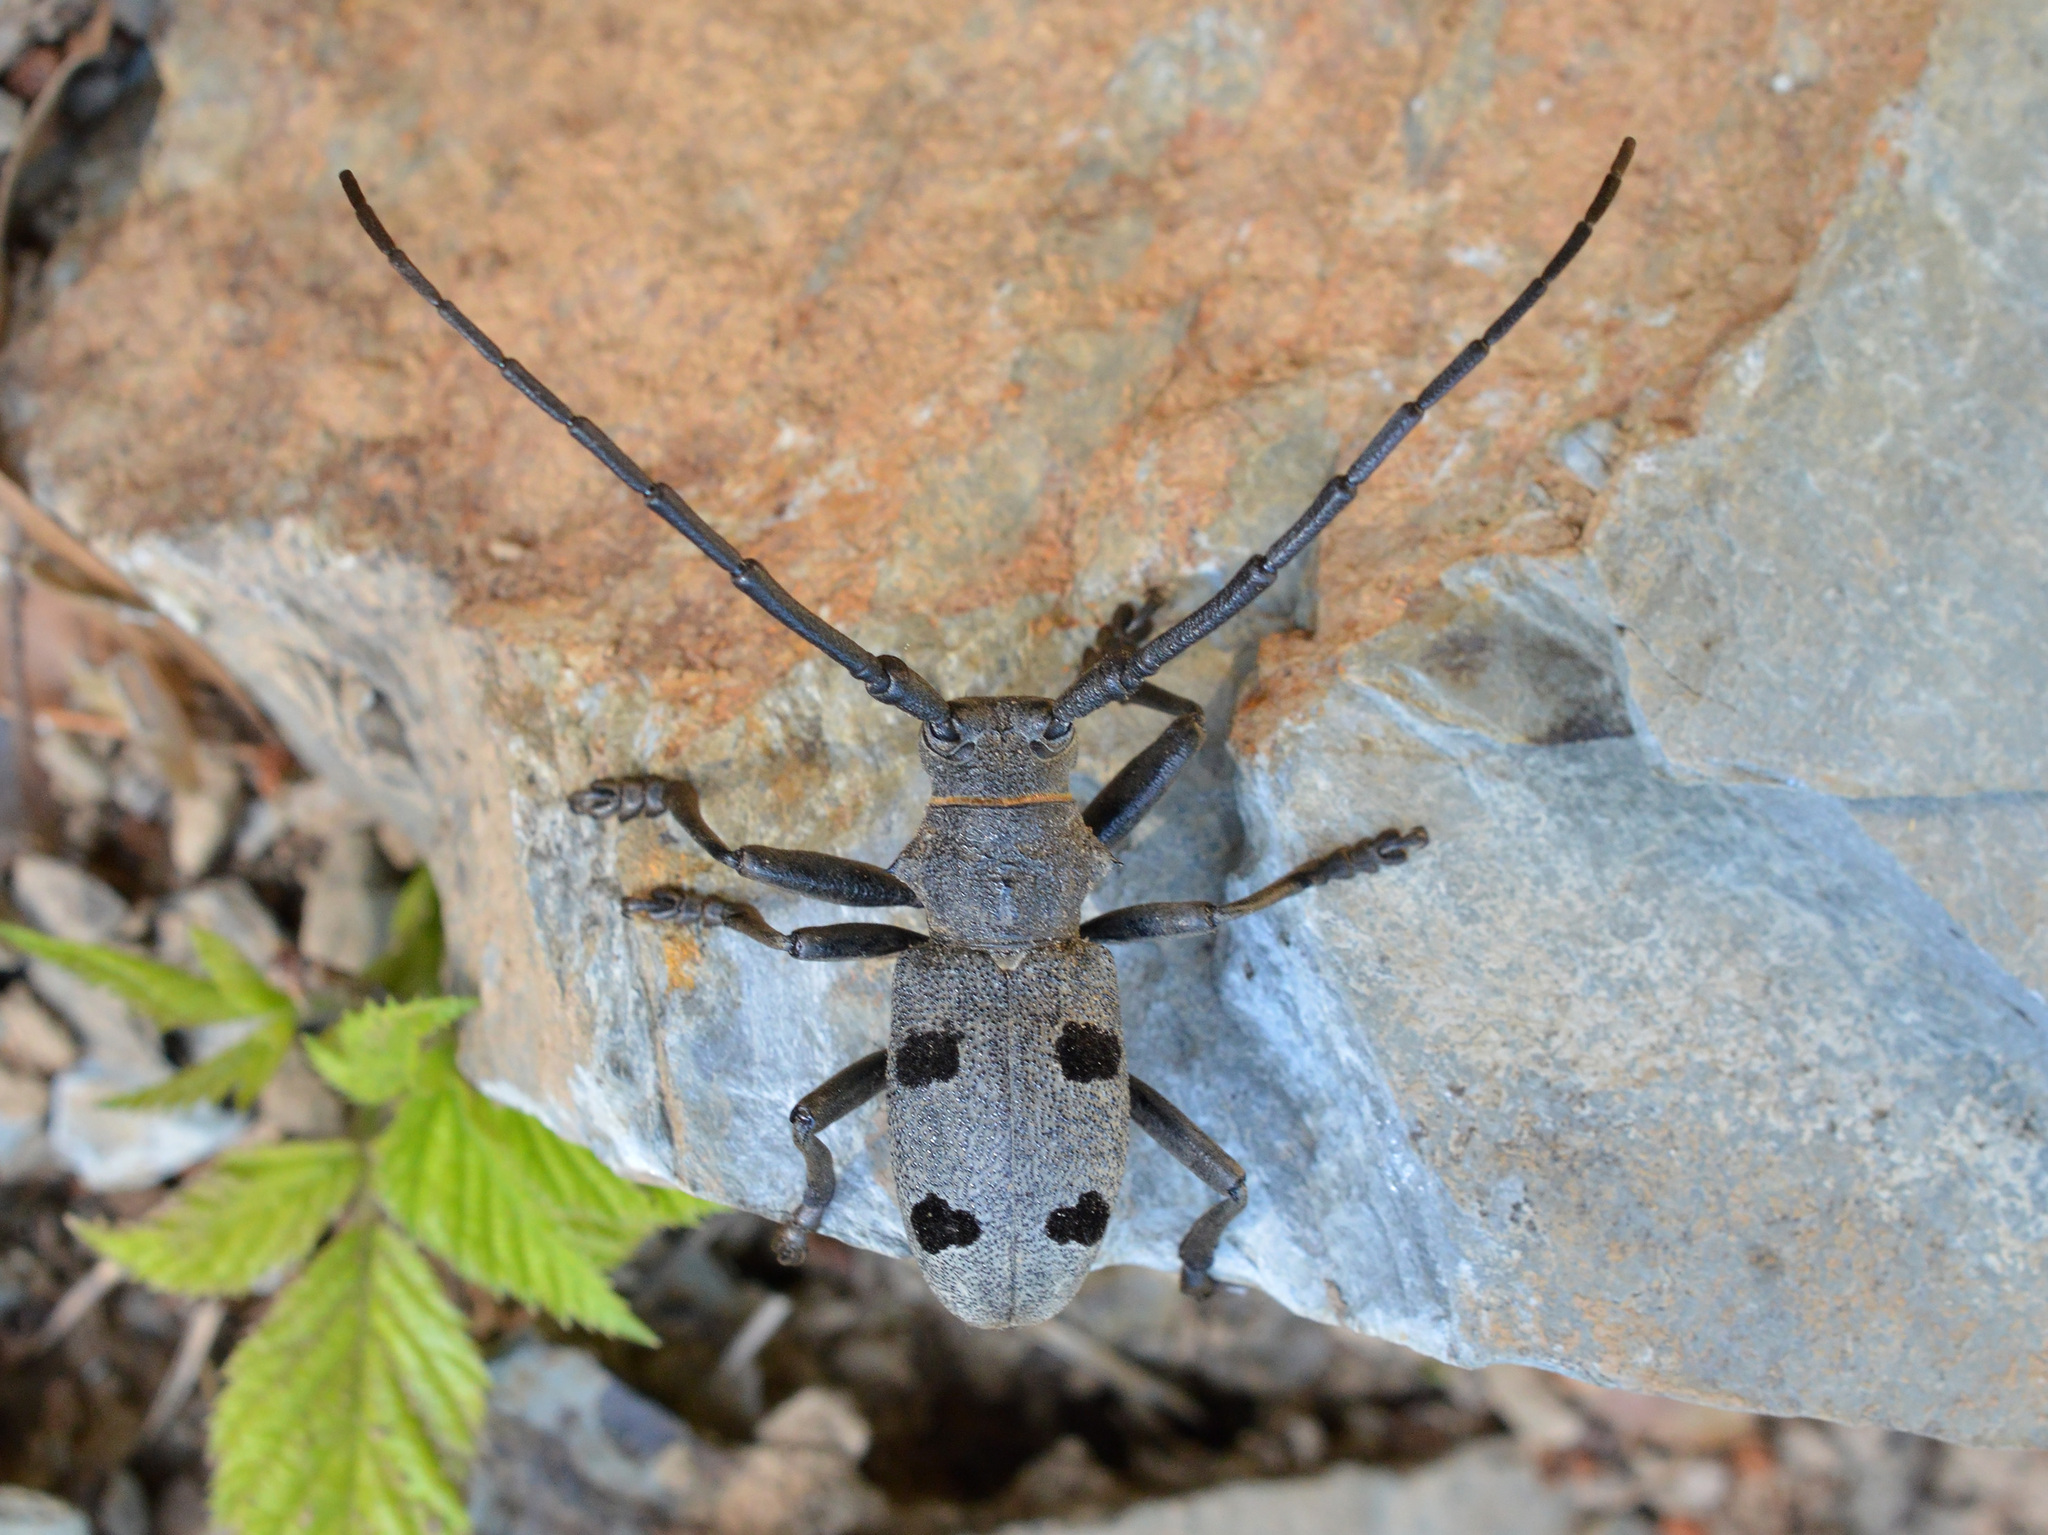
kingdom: Animalia
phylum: Arthropoda
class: Insecta
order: Coleoptera
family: Cerambycidae
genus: Morimus
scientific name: Morimus funereus
